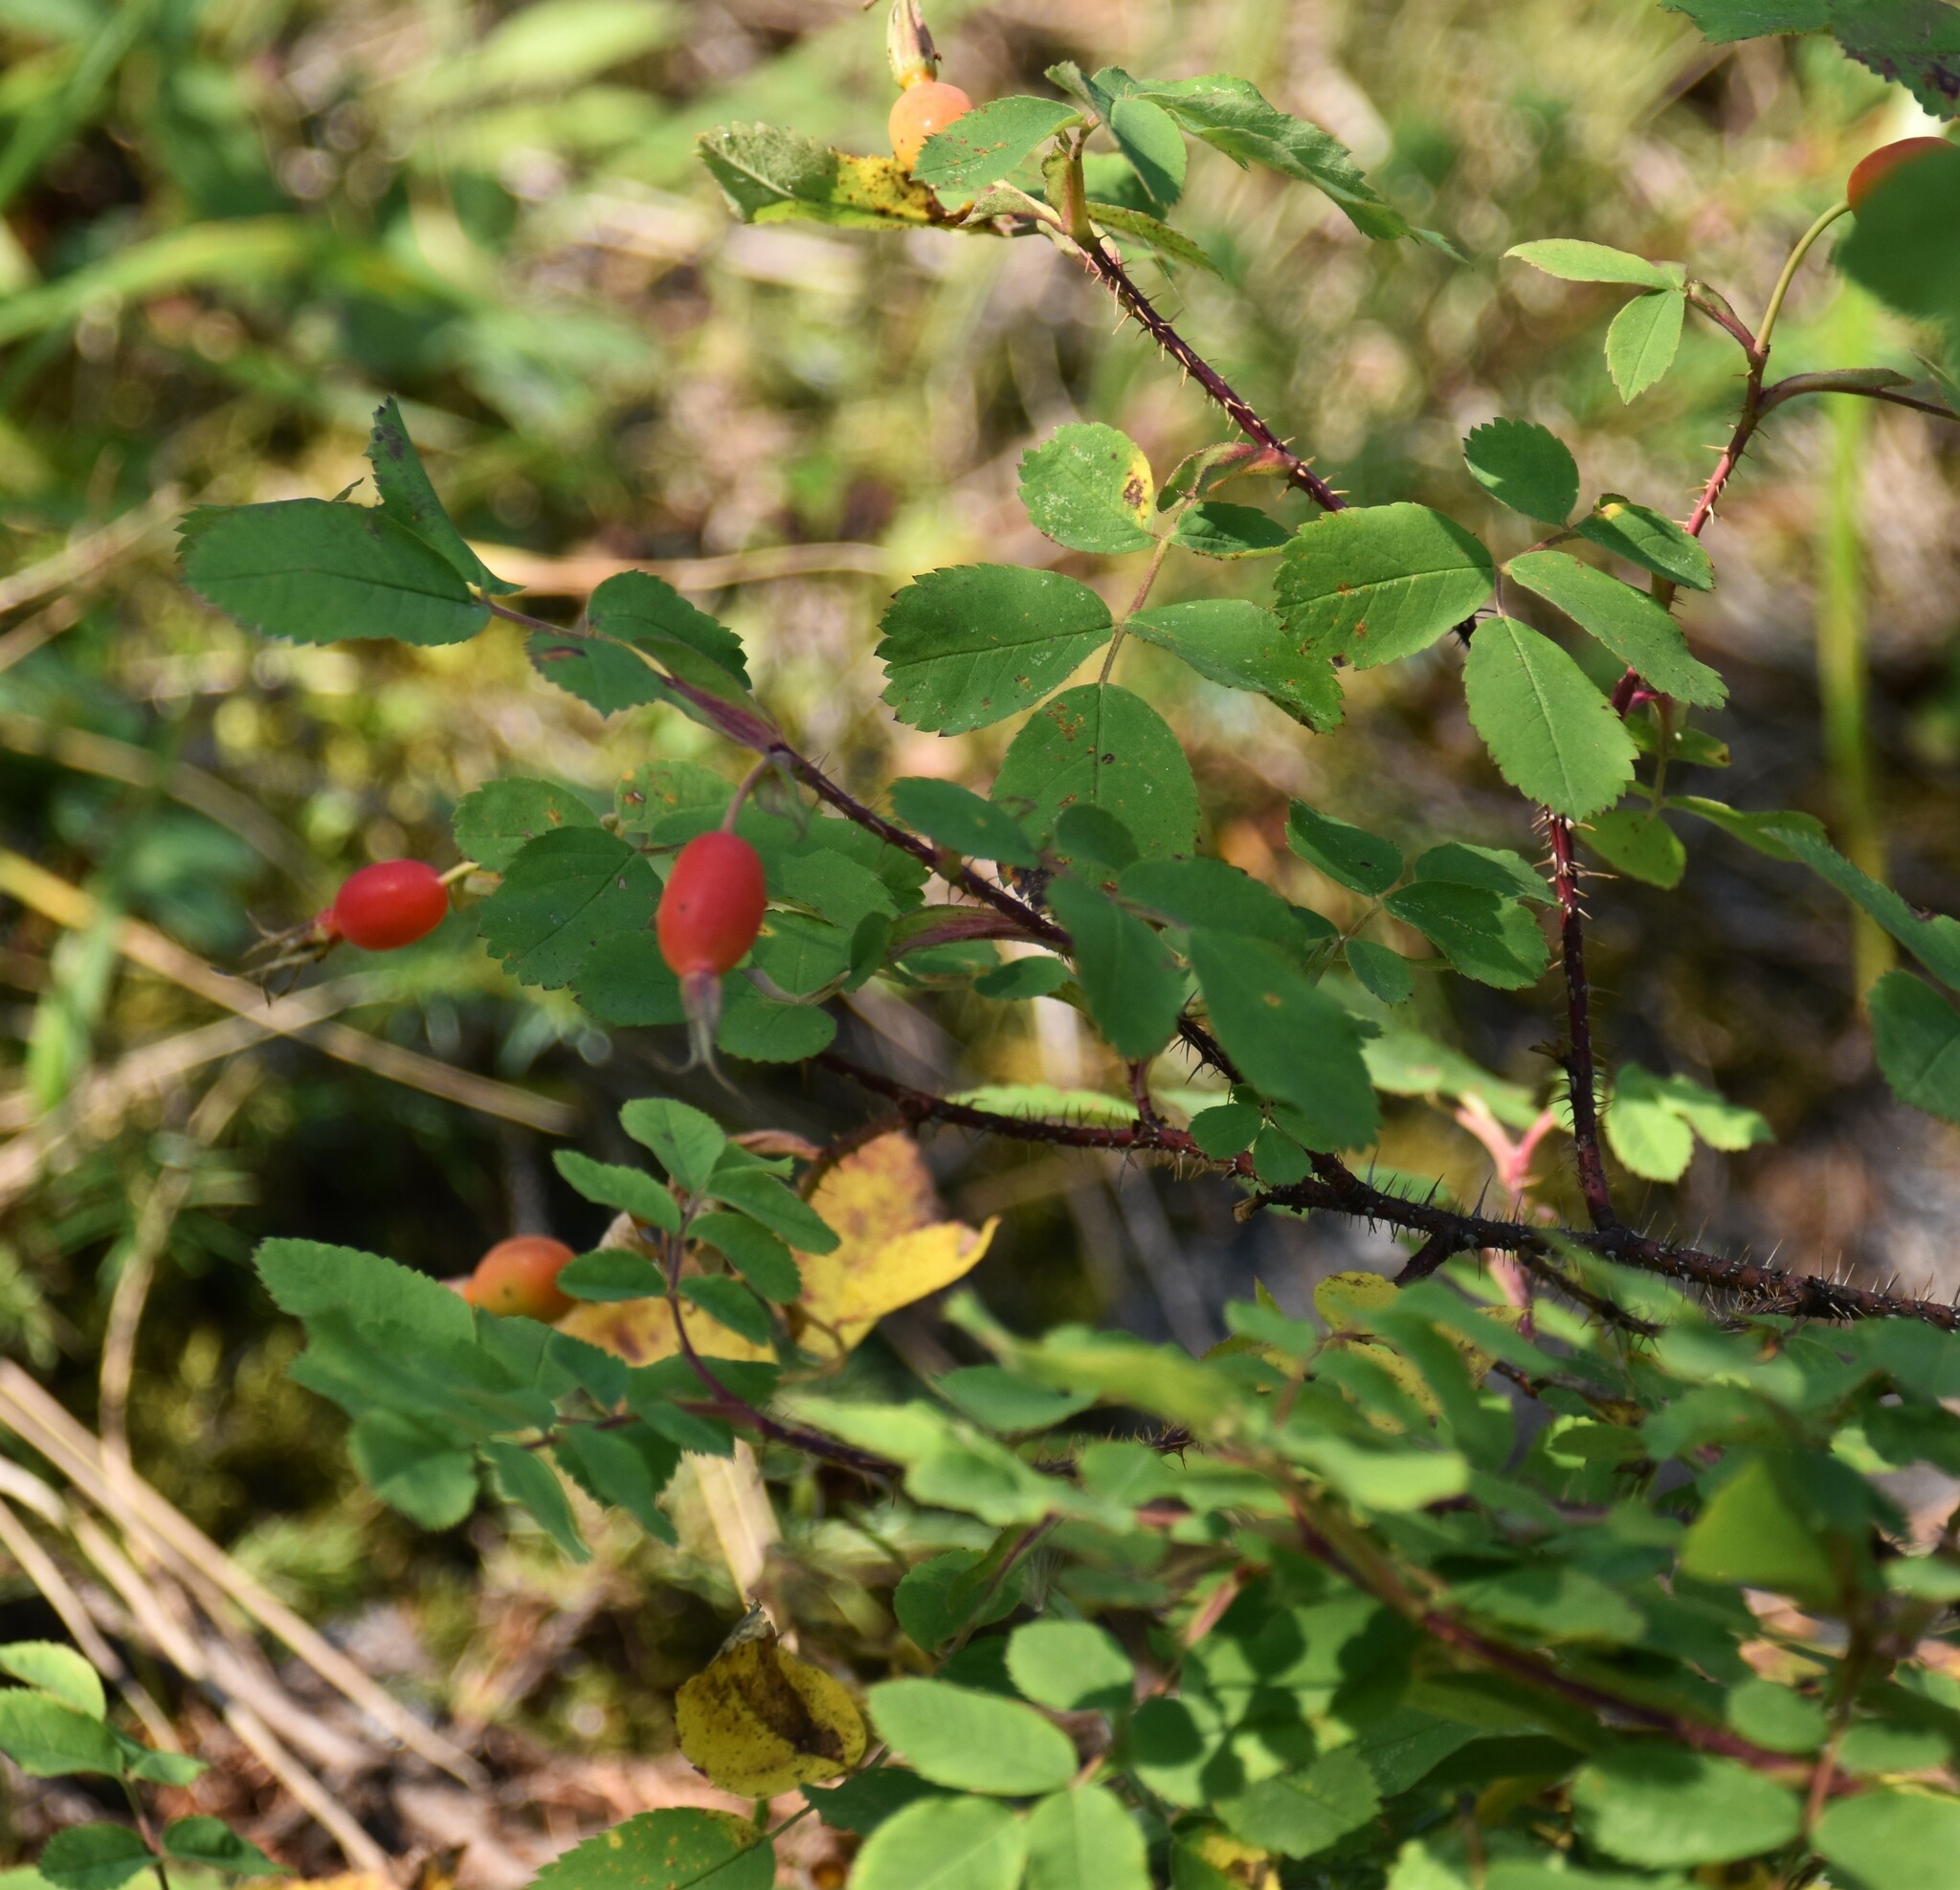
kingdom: Plantae
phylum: Tracheophyta
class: Magnoliopsida
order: Rosales
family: Rosaceae
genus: Rosa
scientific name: Rosa acicularis
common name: Prickly rose
